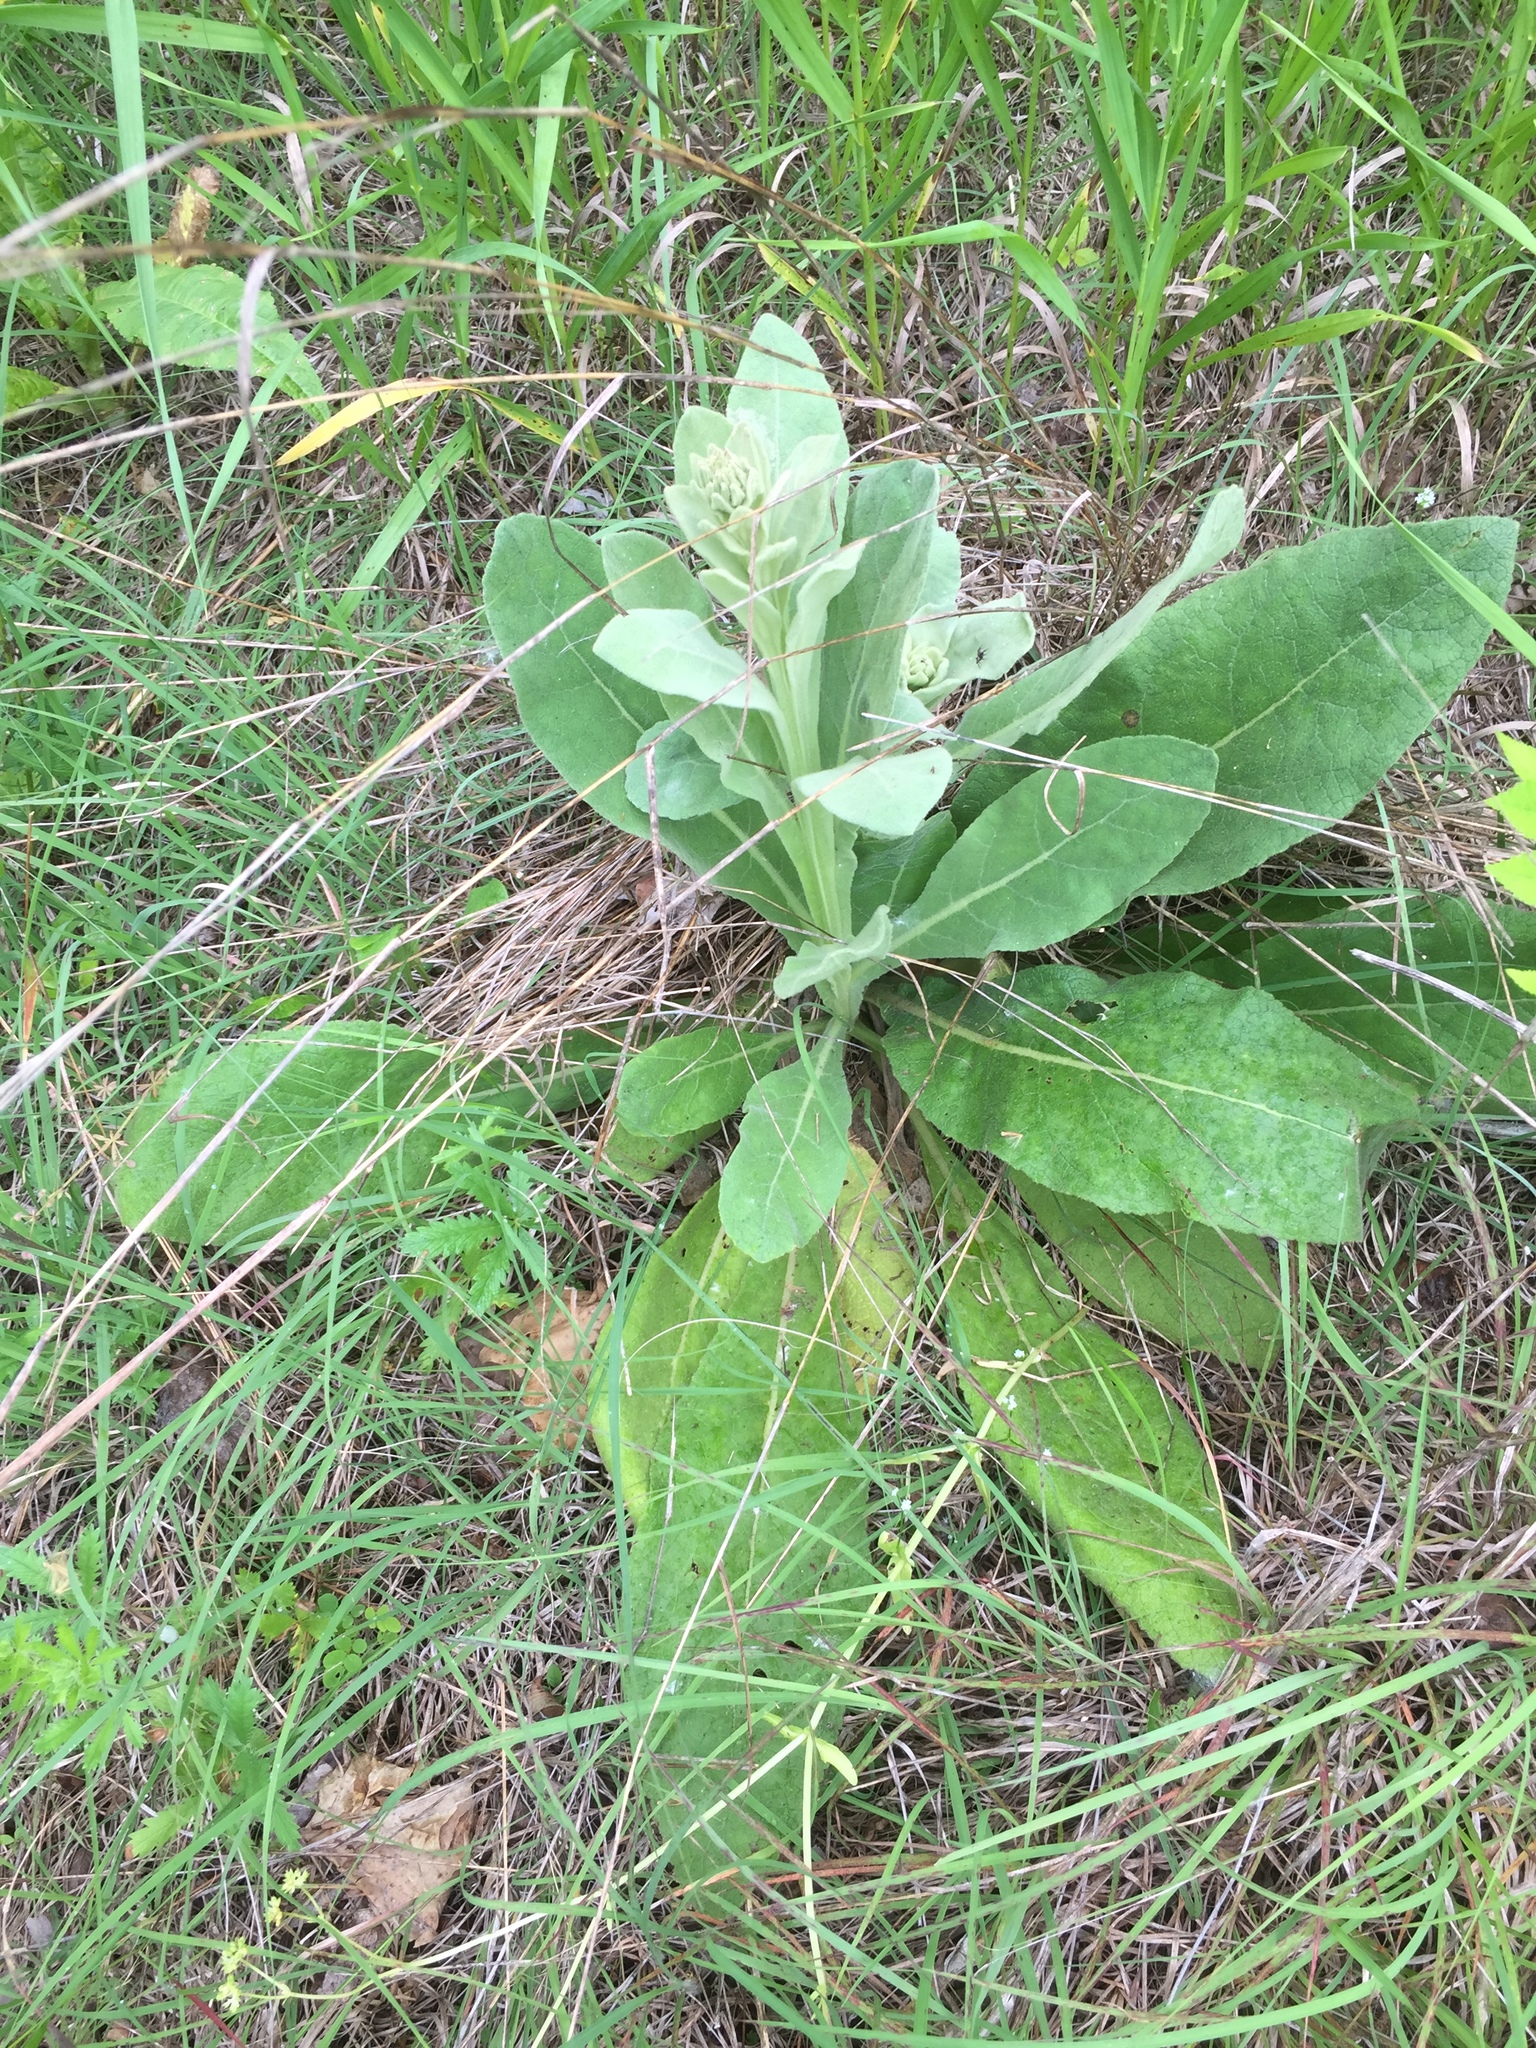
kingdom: Plantae
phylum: Tracheophyta
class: Magnoliopsida
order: Lamiales
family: Scrophulariaceae
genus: Verbascum
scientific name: Verbascum thapsus
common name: Common mullein
